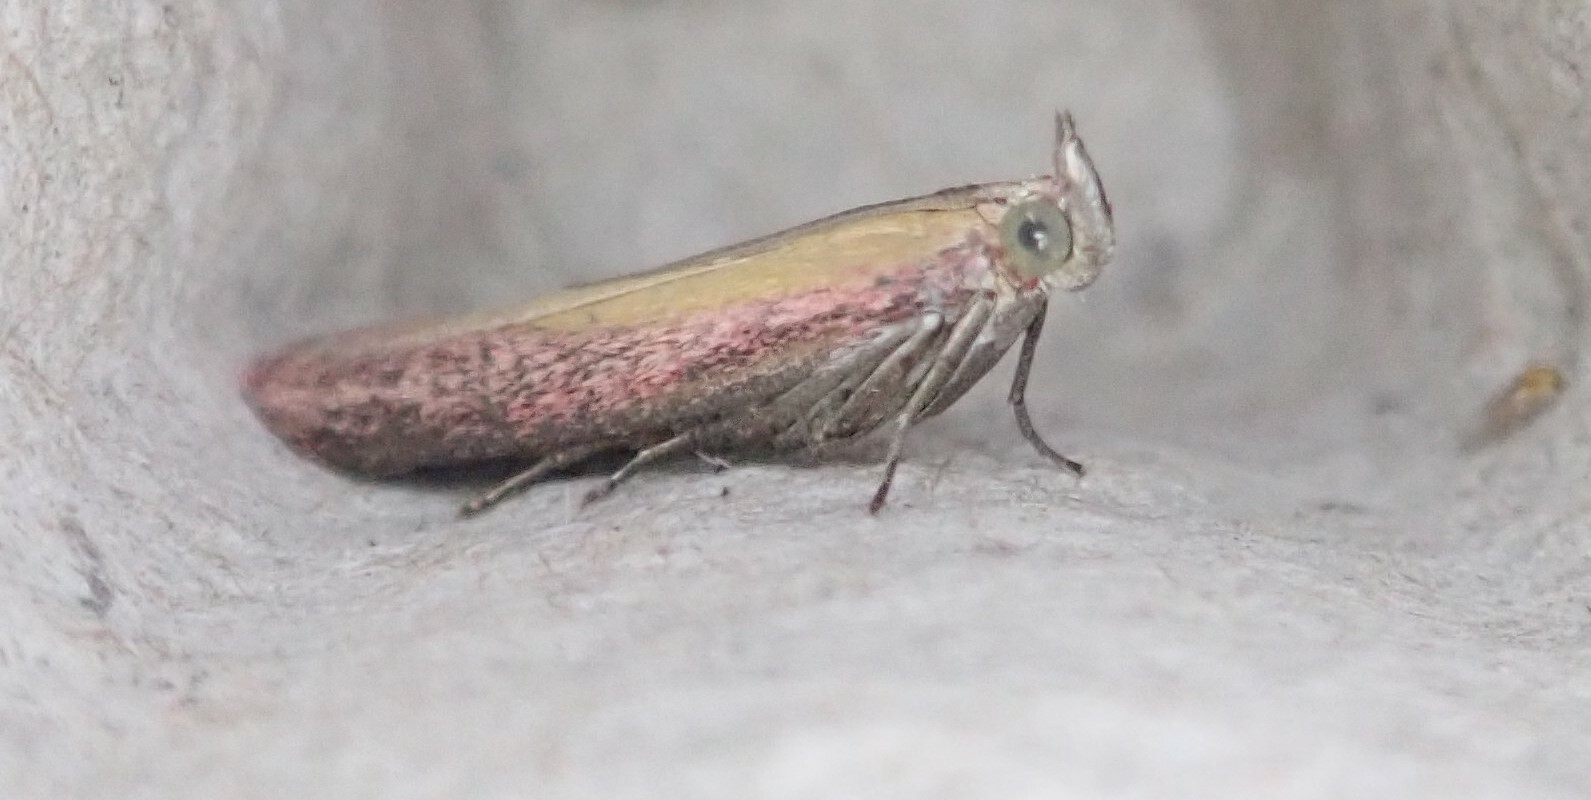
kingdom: Animalia
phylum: Arthropoda
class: Insecta
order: Lepidoptera
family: Pyralidae
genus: Oncocera
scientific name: Oncocera semirubella
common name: Rosy-striped knot-horn
